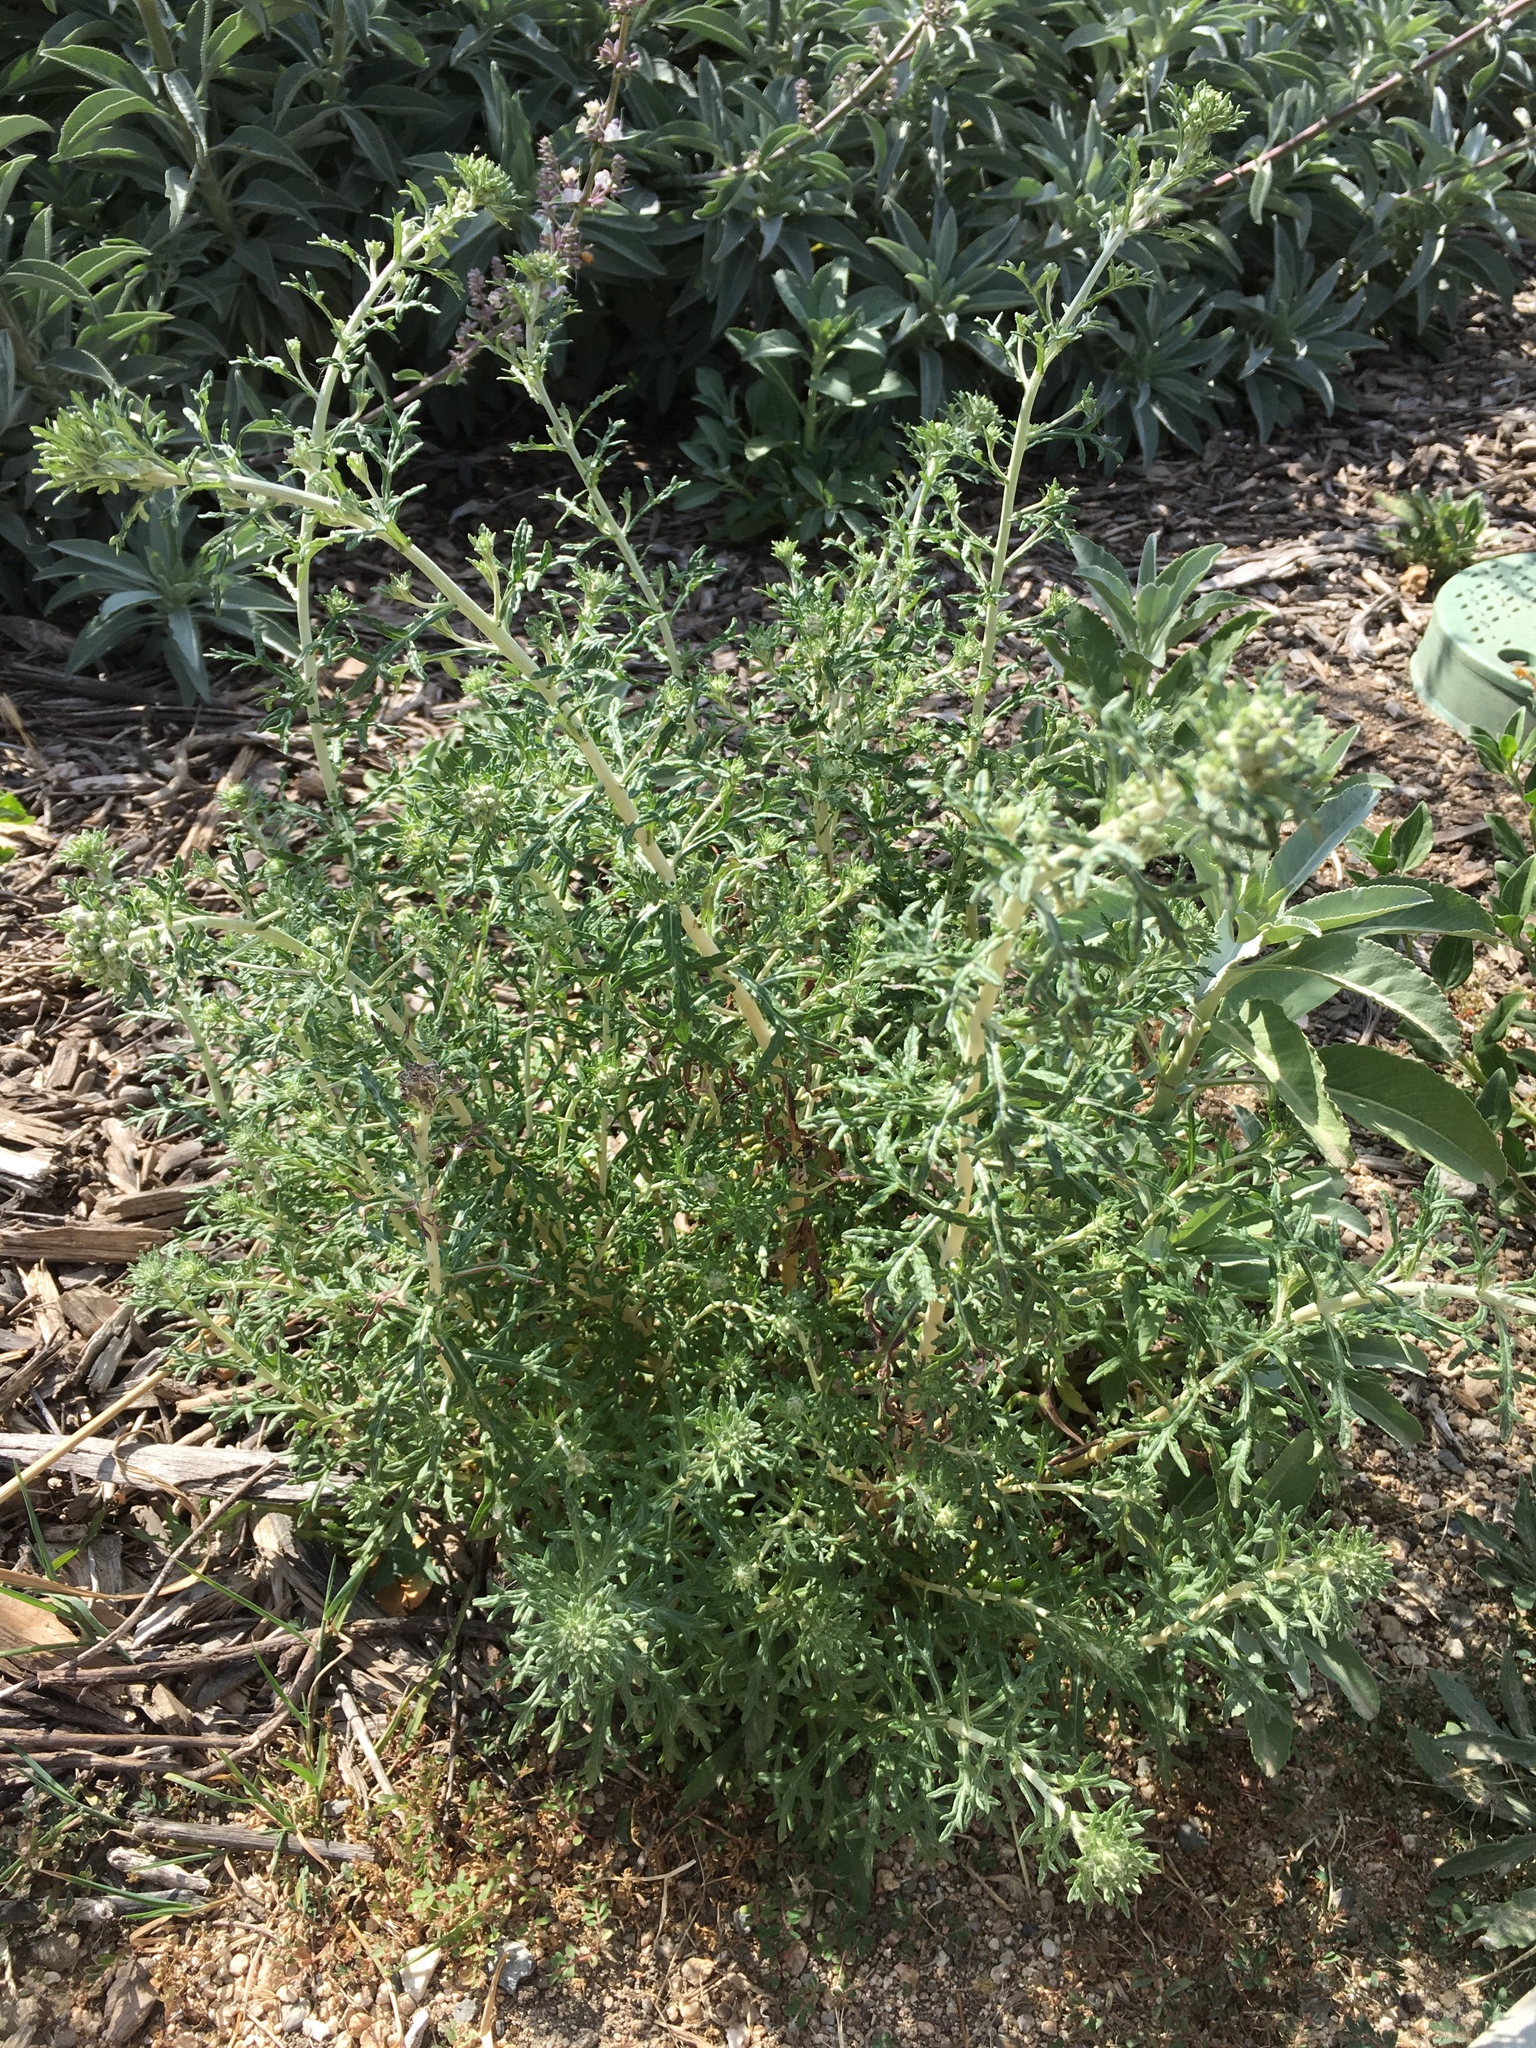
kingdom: Plantae
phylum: Tracheophyta
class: Magnoliopsida
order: Asterales
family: Asteraceae
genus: Eriophyllum
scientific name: Eriophyllum confertiflorum
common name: Golden-yarrow
